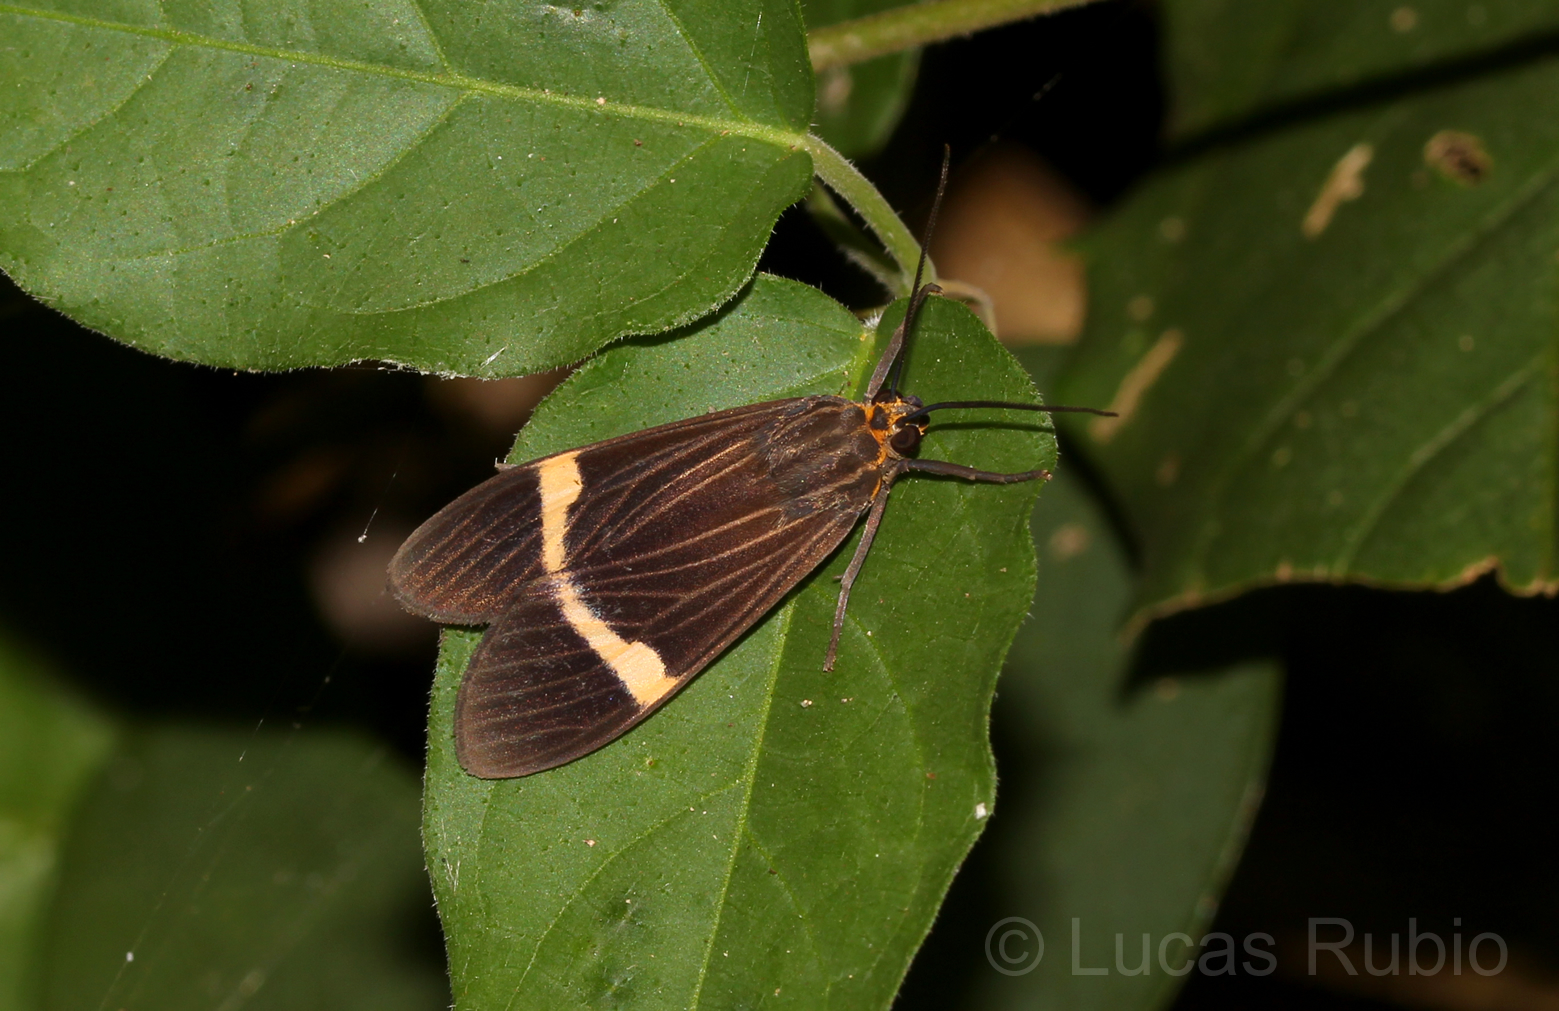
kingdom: Animalia
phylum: Arthropoda
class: Insecta
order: Lepidoptera
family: Erebidae
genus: Aclytia
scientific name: Aclytia heber
